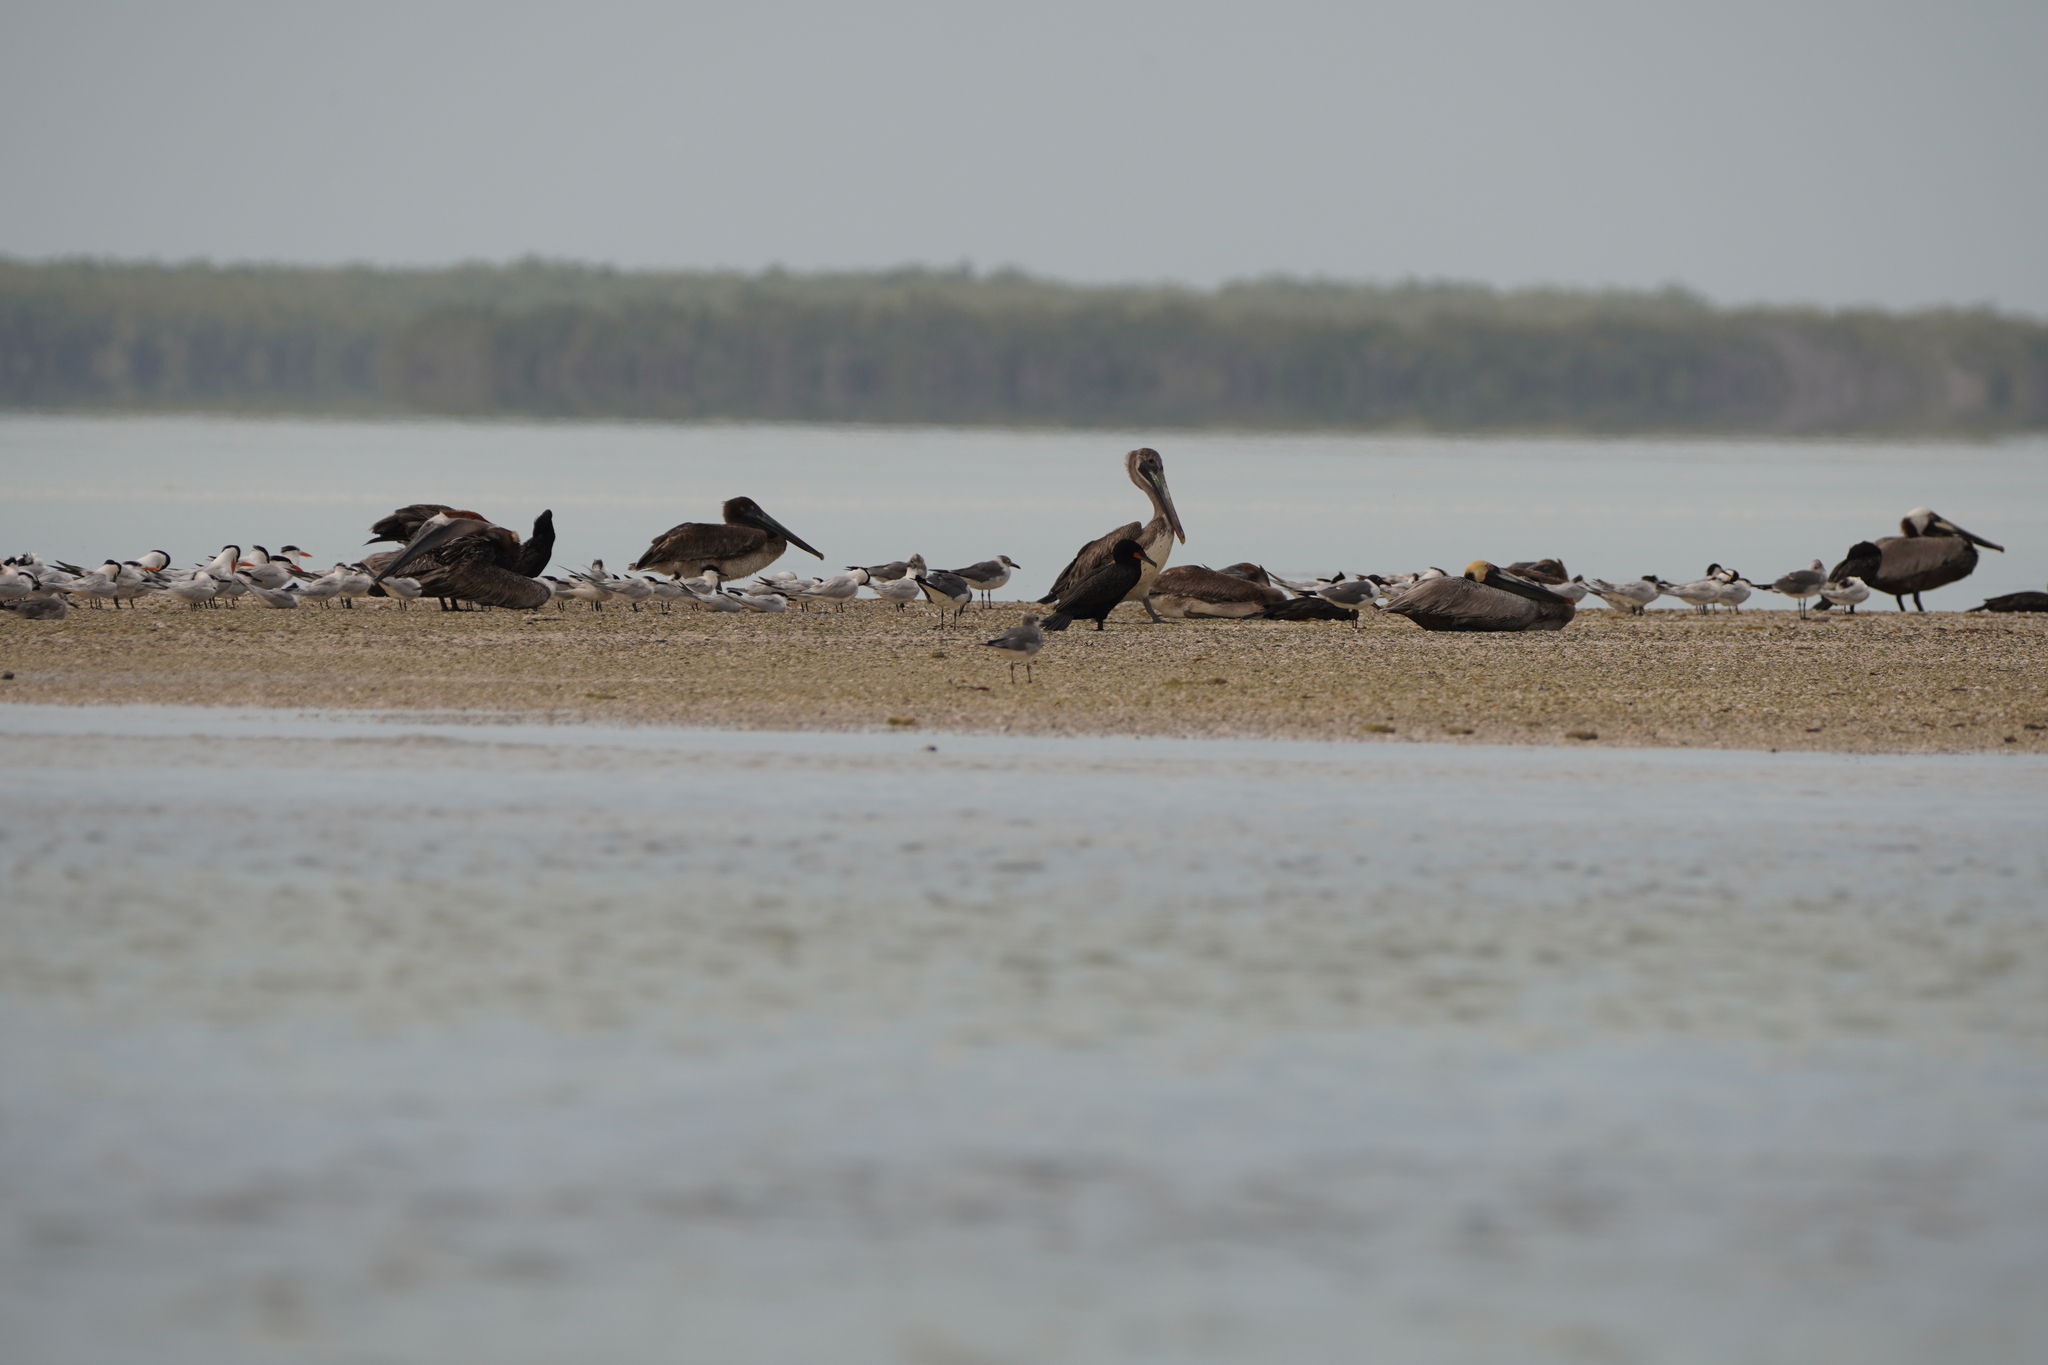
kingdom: Animalia
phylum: Chordata
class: Aves
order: Pelecaniformes
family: Pelecanidae
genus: Pelecanus
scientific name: Pelecanus occidentalis
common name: Brown pelican
